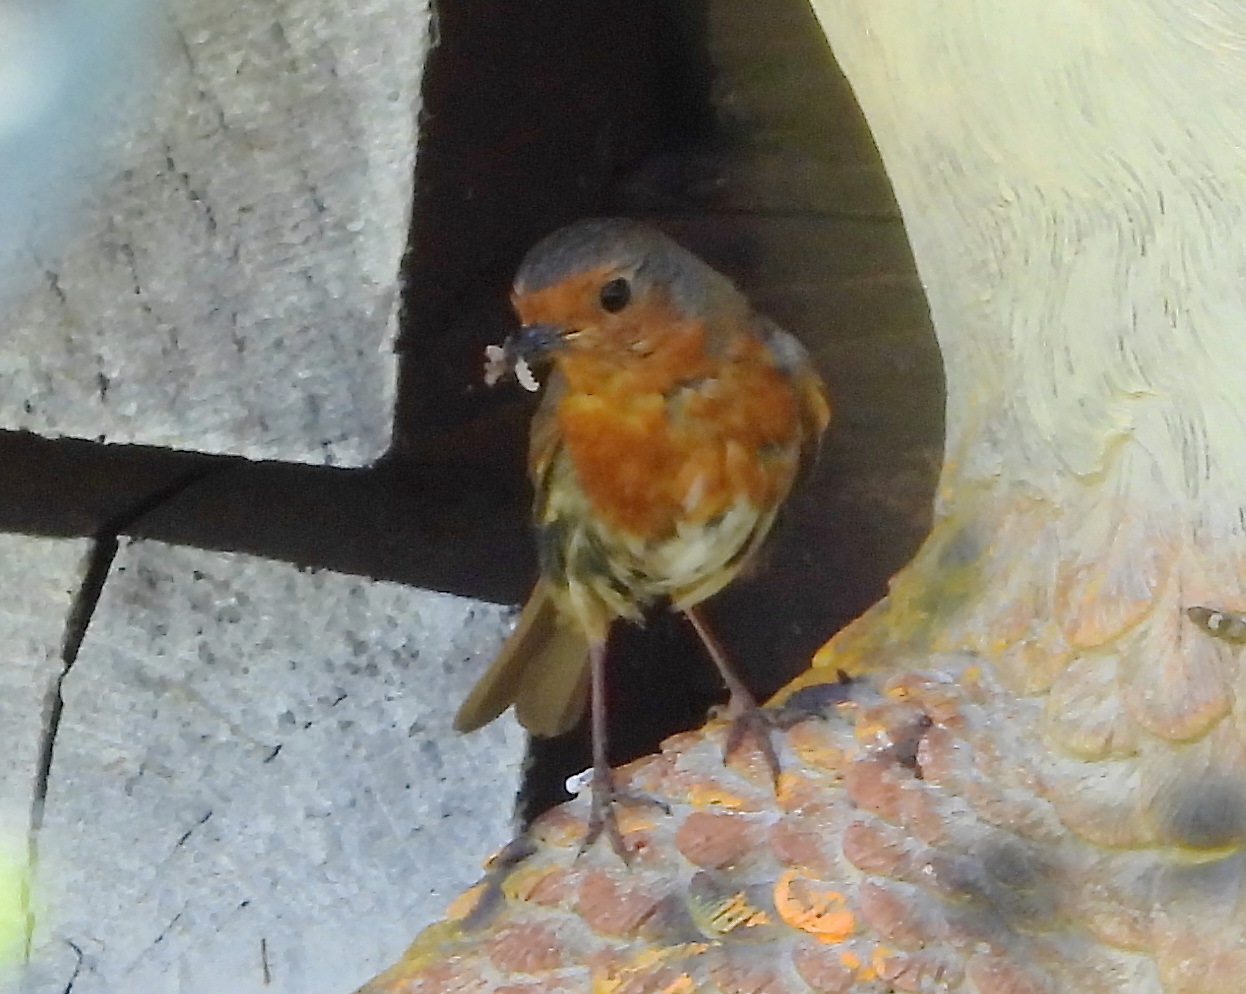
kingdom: Animalia
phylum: Chordata
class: Aves
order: Passeriformes
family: Muscicapidae
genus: Erithacus
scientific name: Erithacus rubecula
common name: European robin
